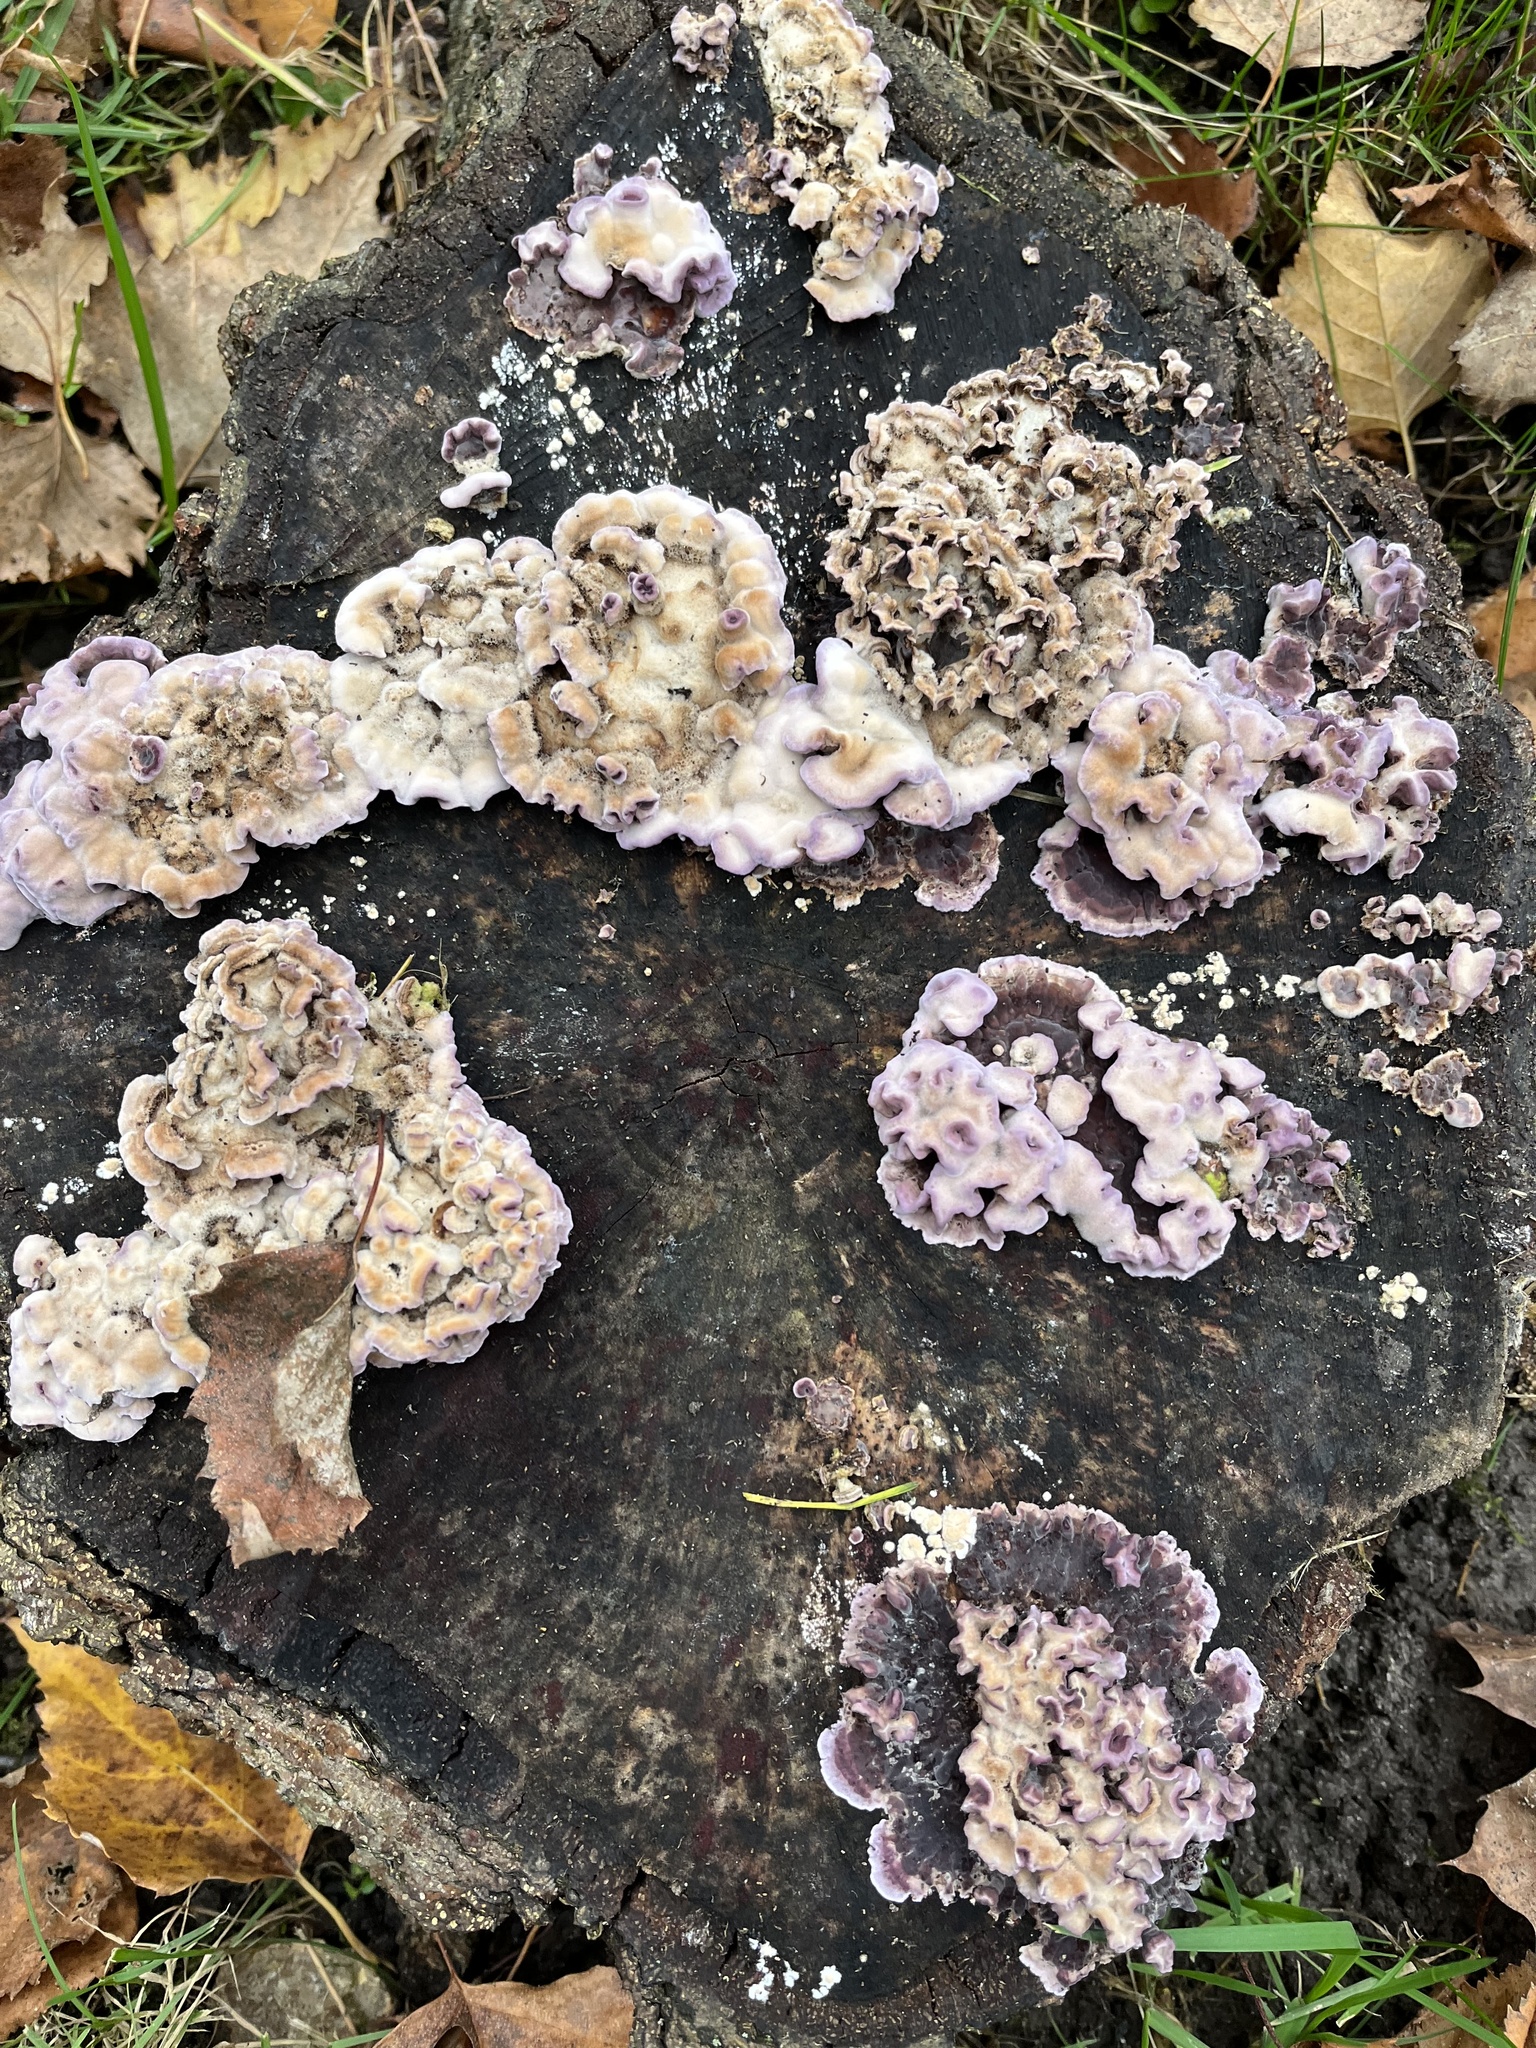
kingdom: Fungi
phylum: Basidiomycota
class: Agaricomycetes
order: Agaricales
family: Cyphellaceae
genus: Chondrostereum
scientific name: Chondrostereum purpureum
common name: Silver leaf disease
